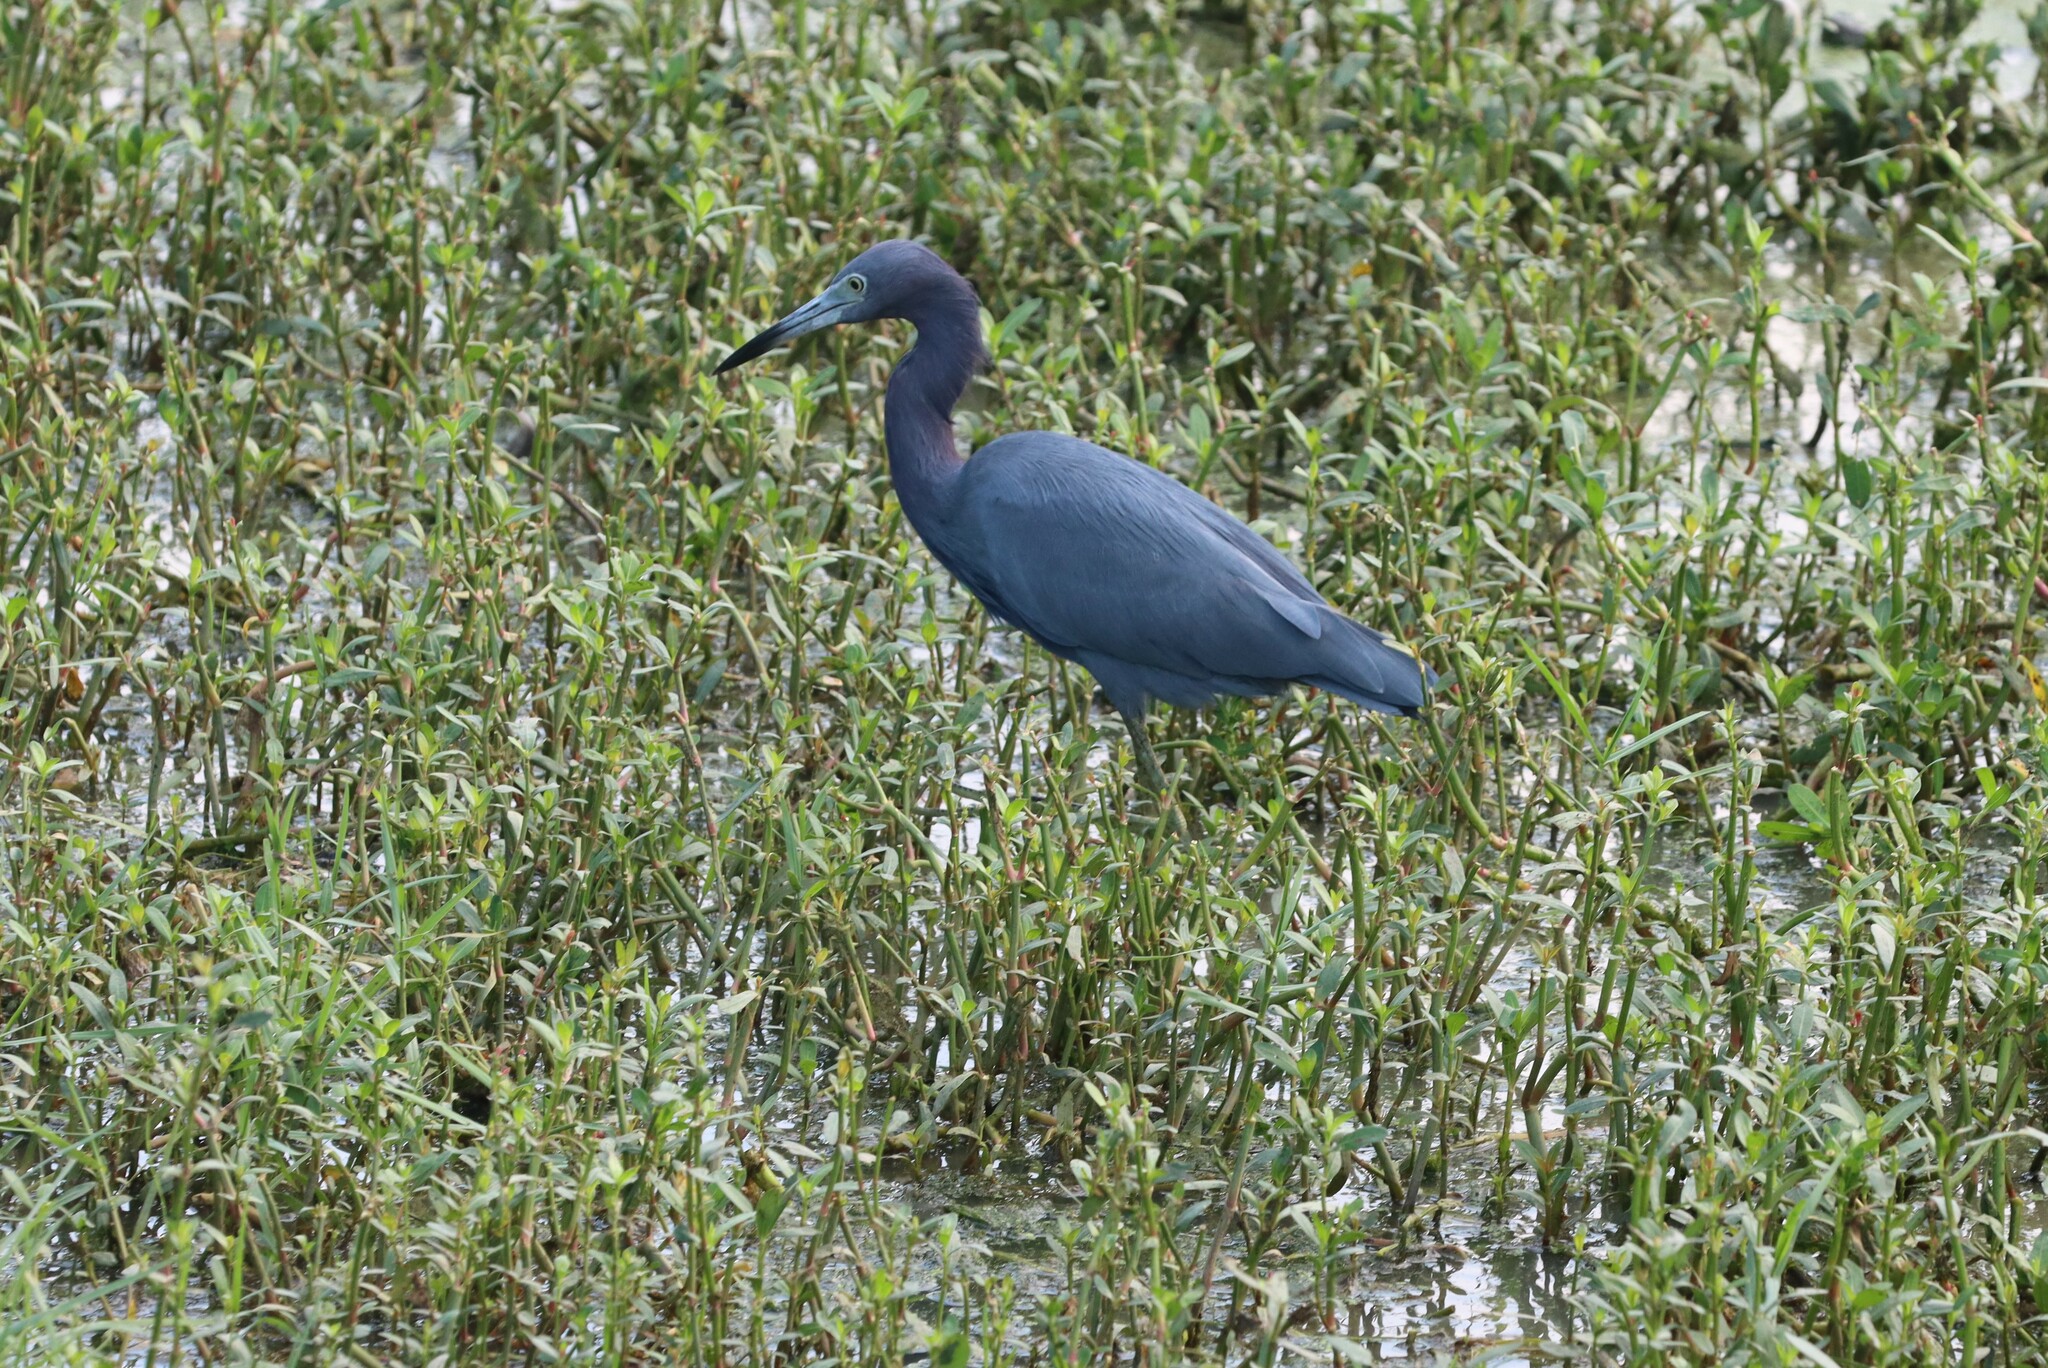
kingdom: Animalia
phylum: Chordata
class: Aves
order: Pelecaniformes
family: Ardeidae
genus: Egretta
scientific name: Egretta caerulea
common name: Little blue heron
